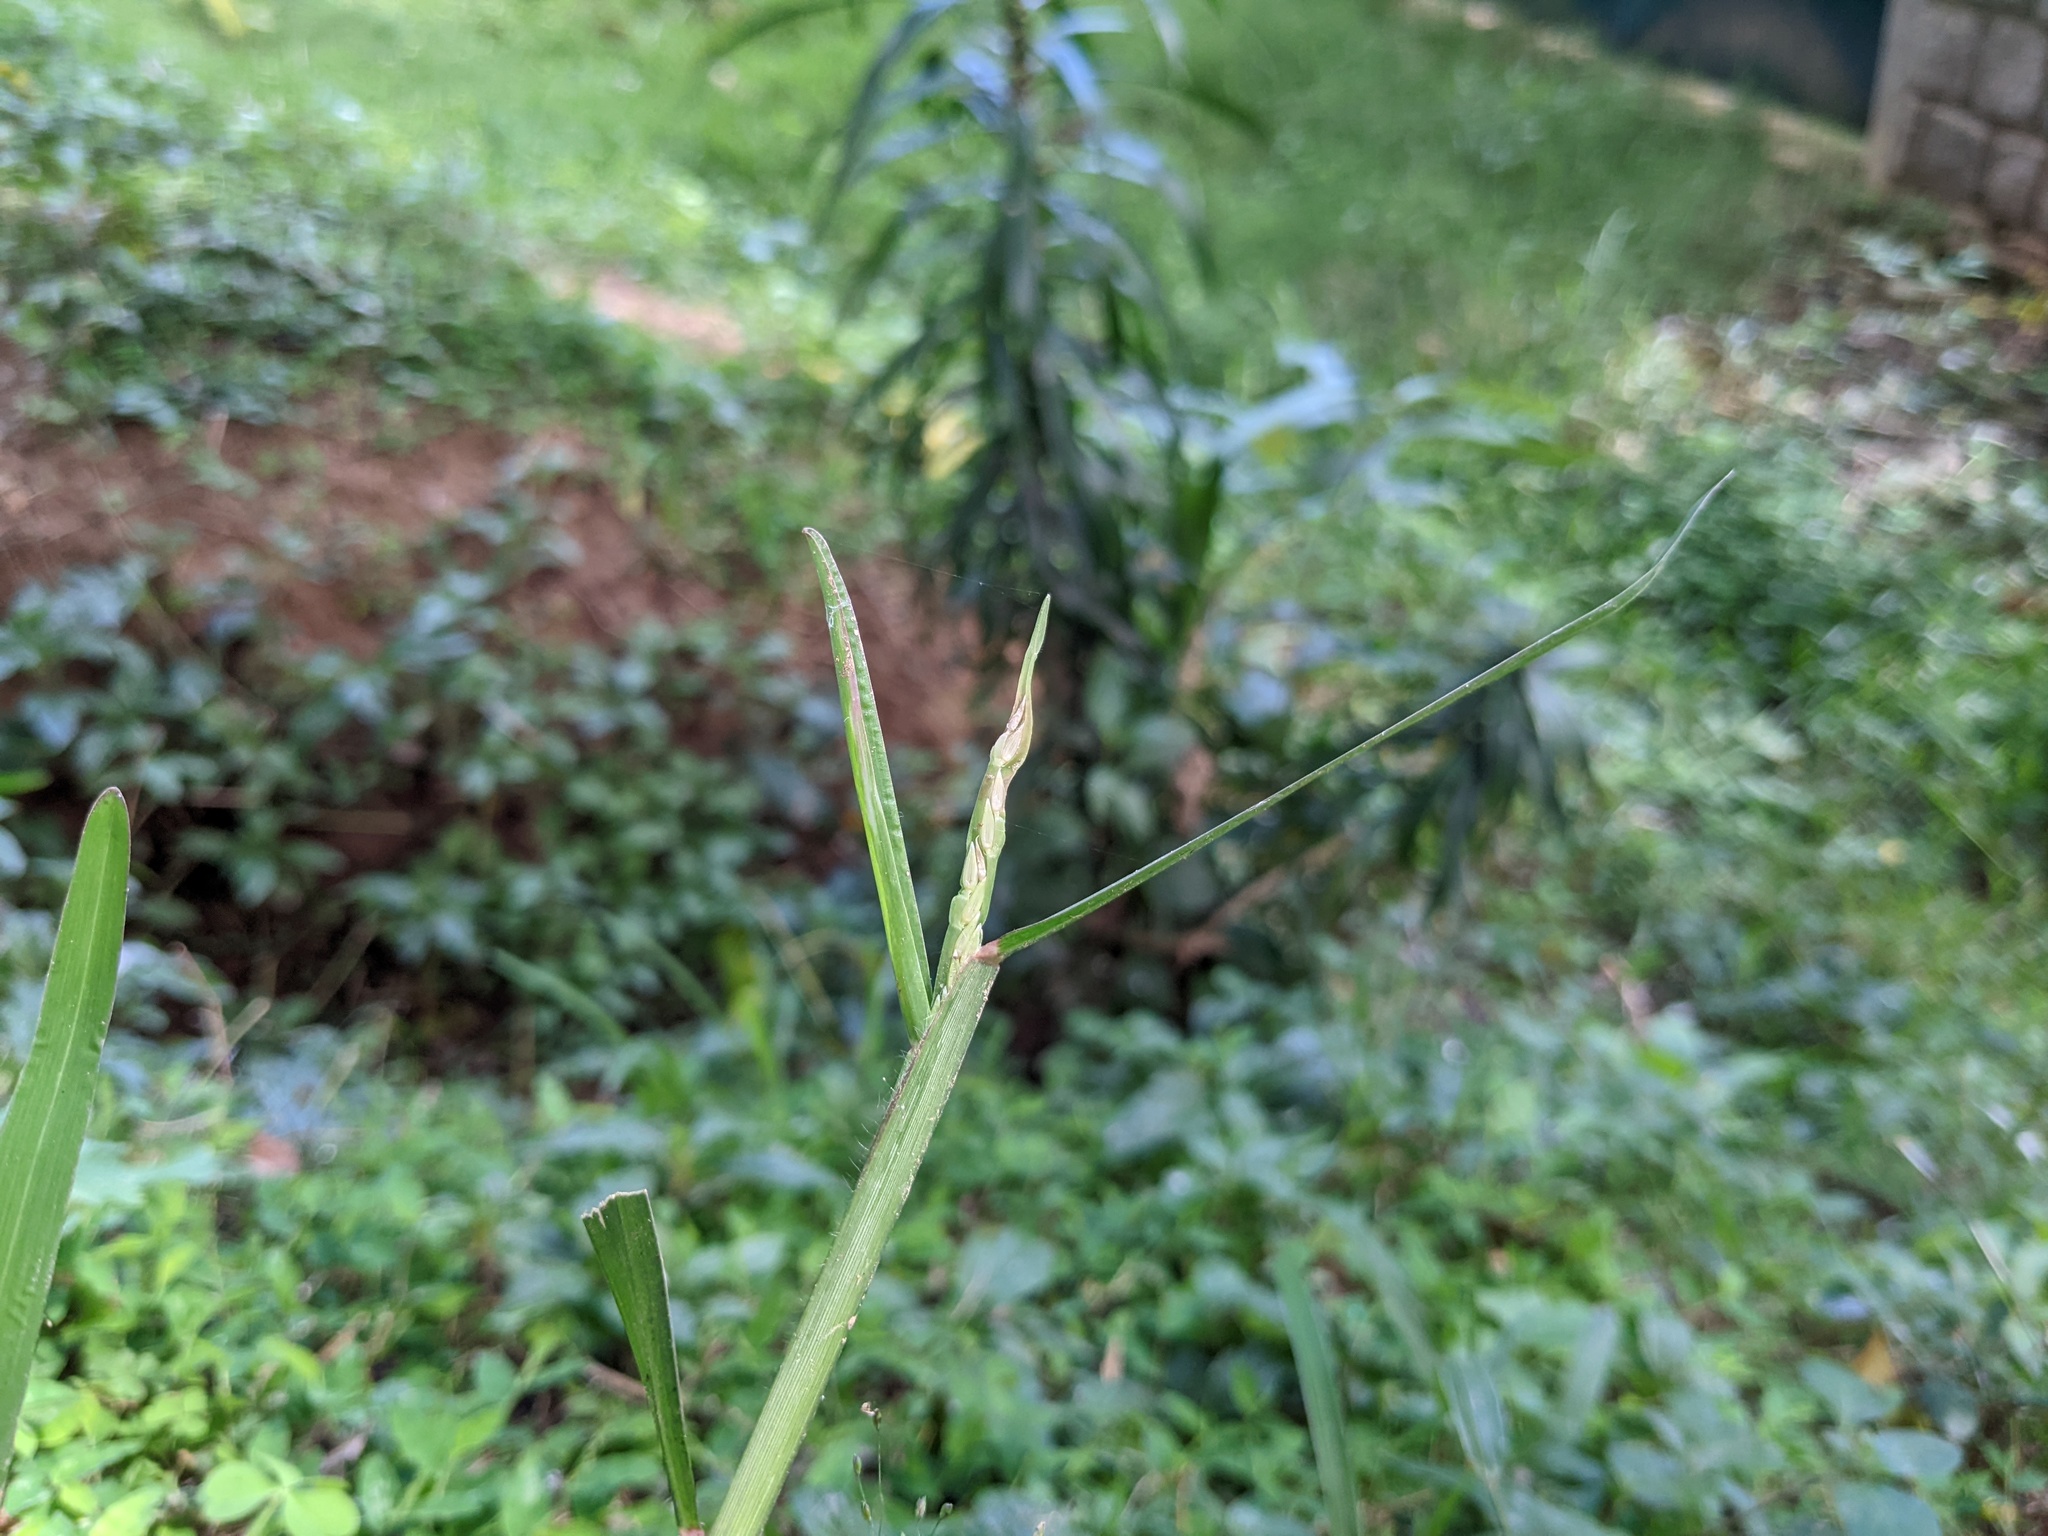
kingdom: Plantae
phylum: Tracheophyta
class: Liliopsida
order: Poales
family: Poaceae
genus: Stenotaphrum
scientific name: Stenotaphrum unilaterale
